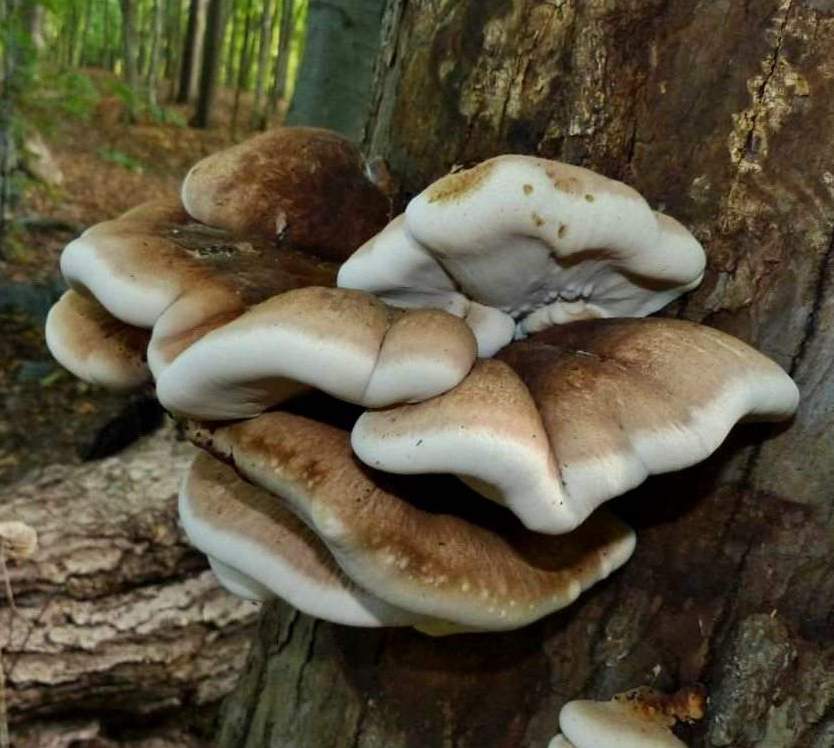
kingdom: Fungi
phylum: Basidiomycota
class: Agaricomycetes
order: Polyporales
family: Ischnodermataceae
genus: Ischnoderma
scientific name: Ischnoderma resinosum
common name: Resinous polypore
